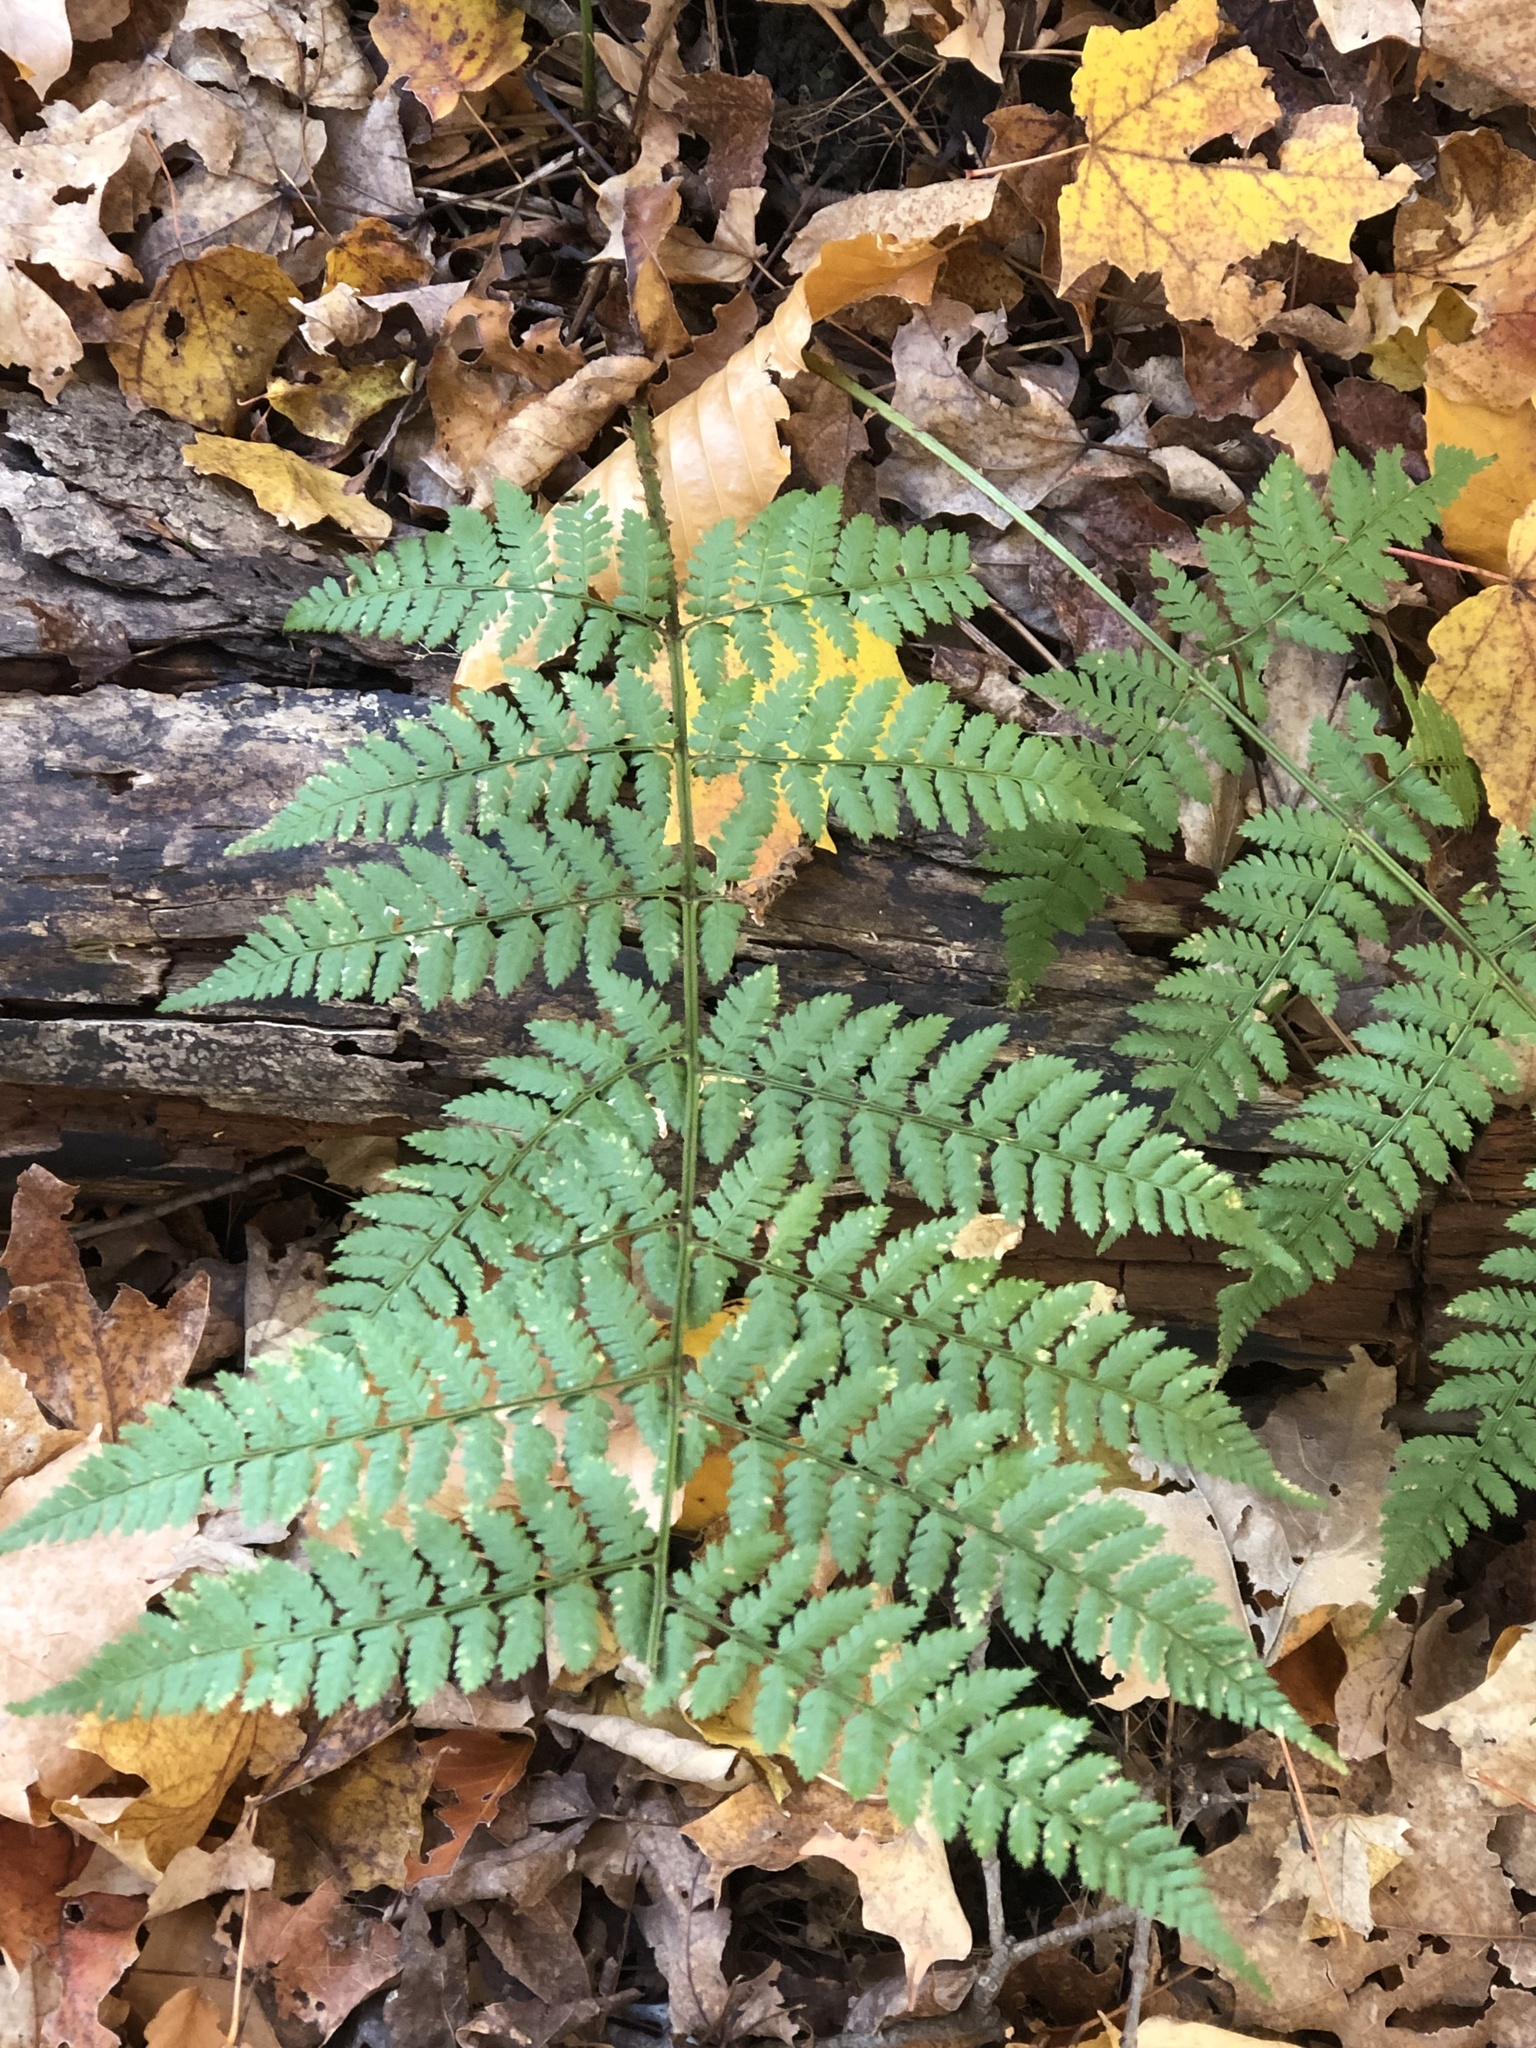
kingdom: Plantae
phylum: Tracheophyta
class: Polypodiopsida
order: Polypodiales
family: Dryopteridaceae
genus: Dryopteris
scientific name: Dryopteris intermedia
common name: Evergreen wood fern
